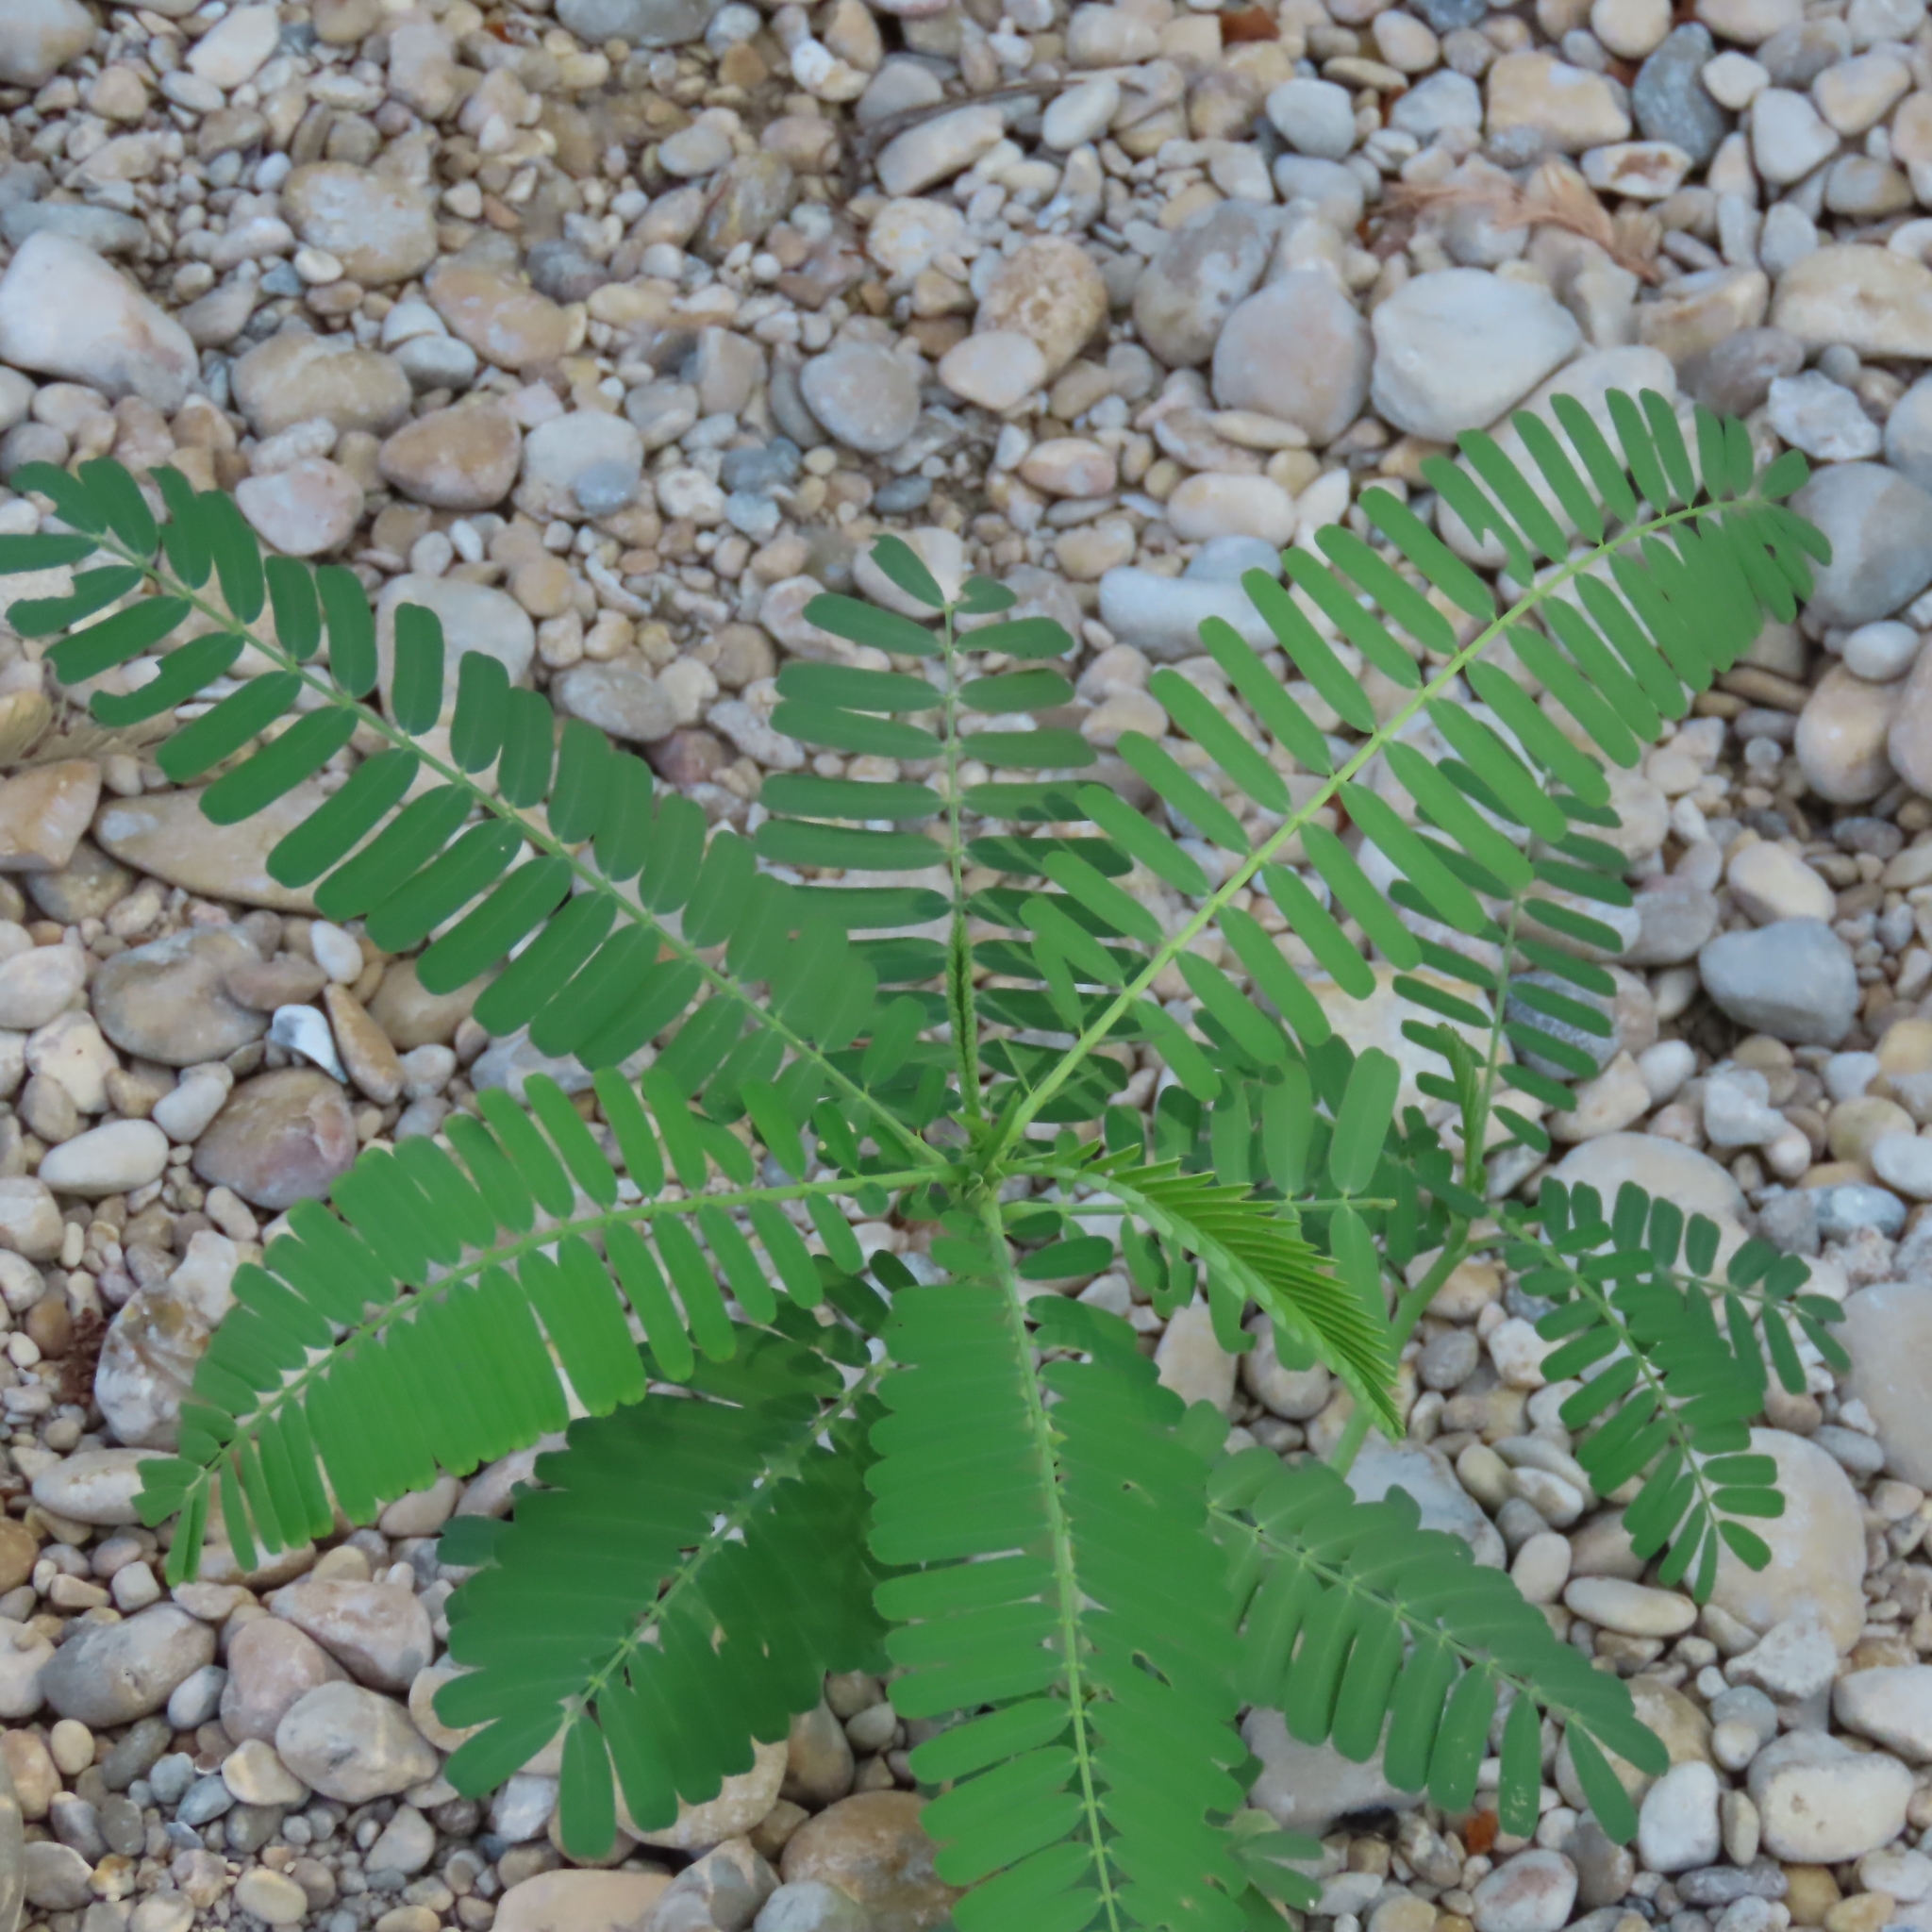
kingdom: Plantae
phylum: Tracheophyta
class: Magnoliopsida
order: Fabales
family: Fabaceae
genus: Sesbania
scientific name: Sesbania herbacea
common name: Bigpod sesbania
